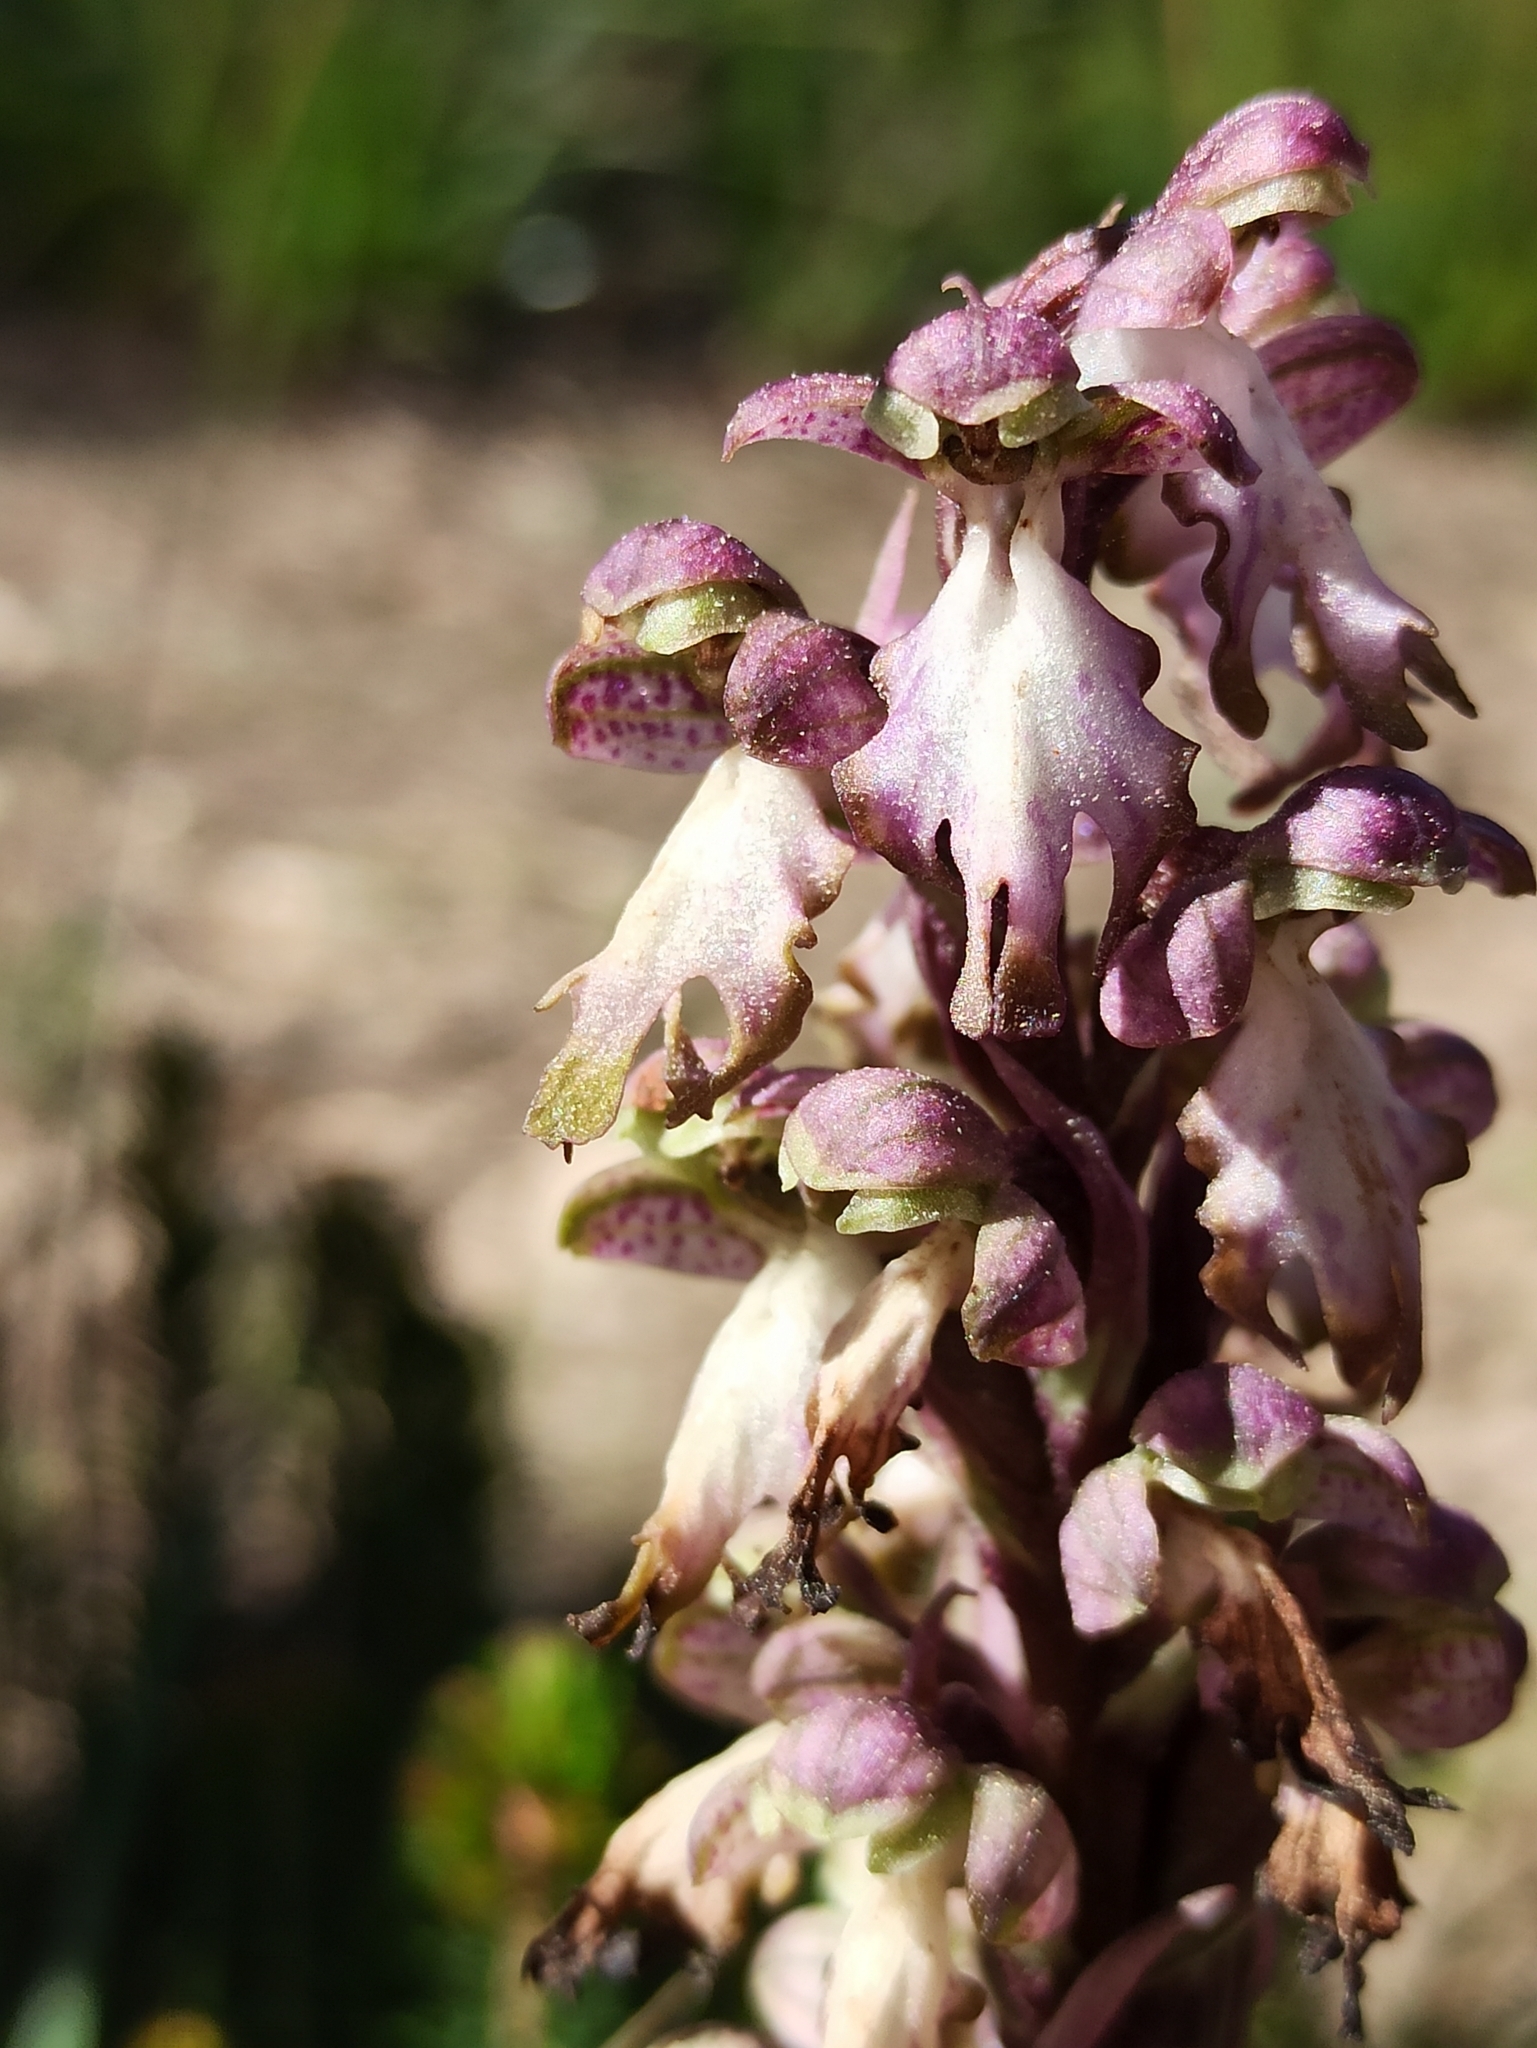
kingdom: Plantae
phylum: Tracheophyta
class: Liliopsida
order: Asparagales
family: Orchidaceae
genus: Himantoglossum
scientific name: Himantoglossum robertianum
